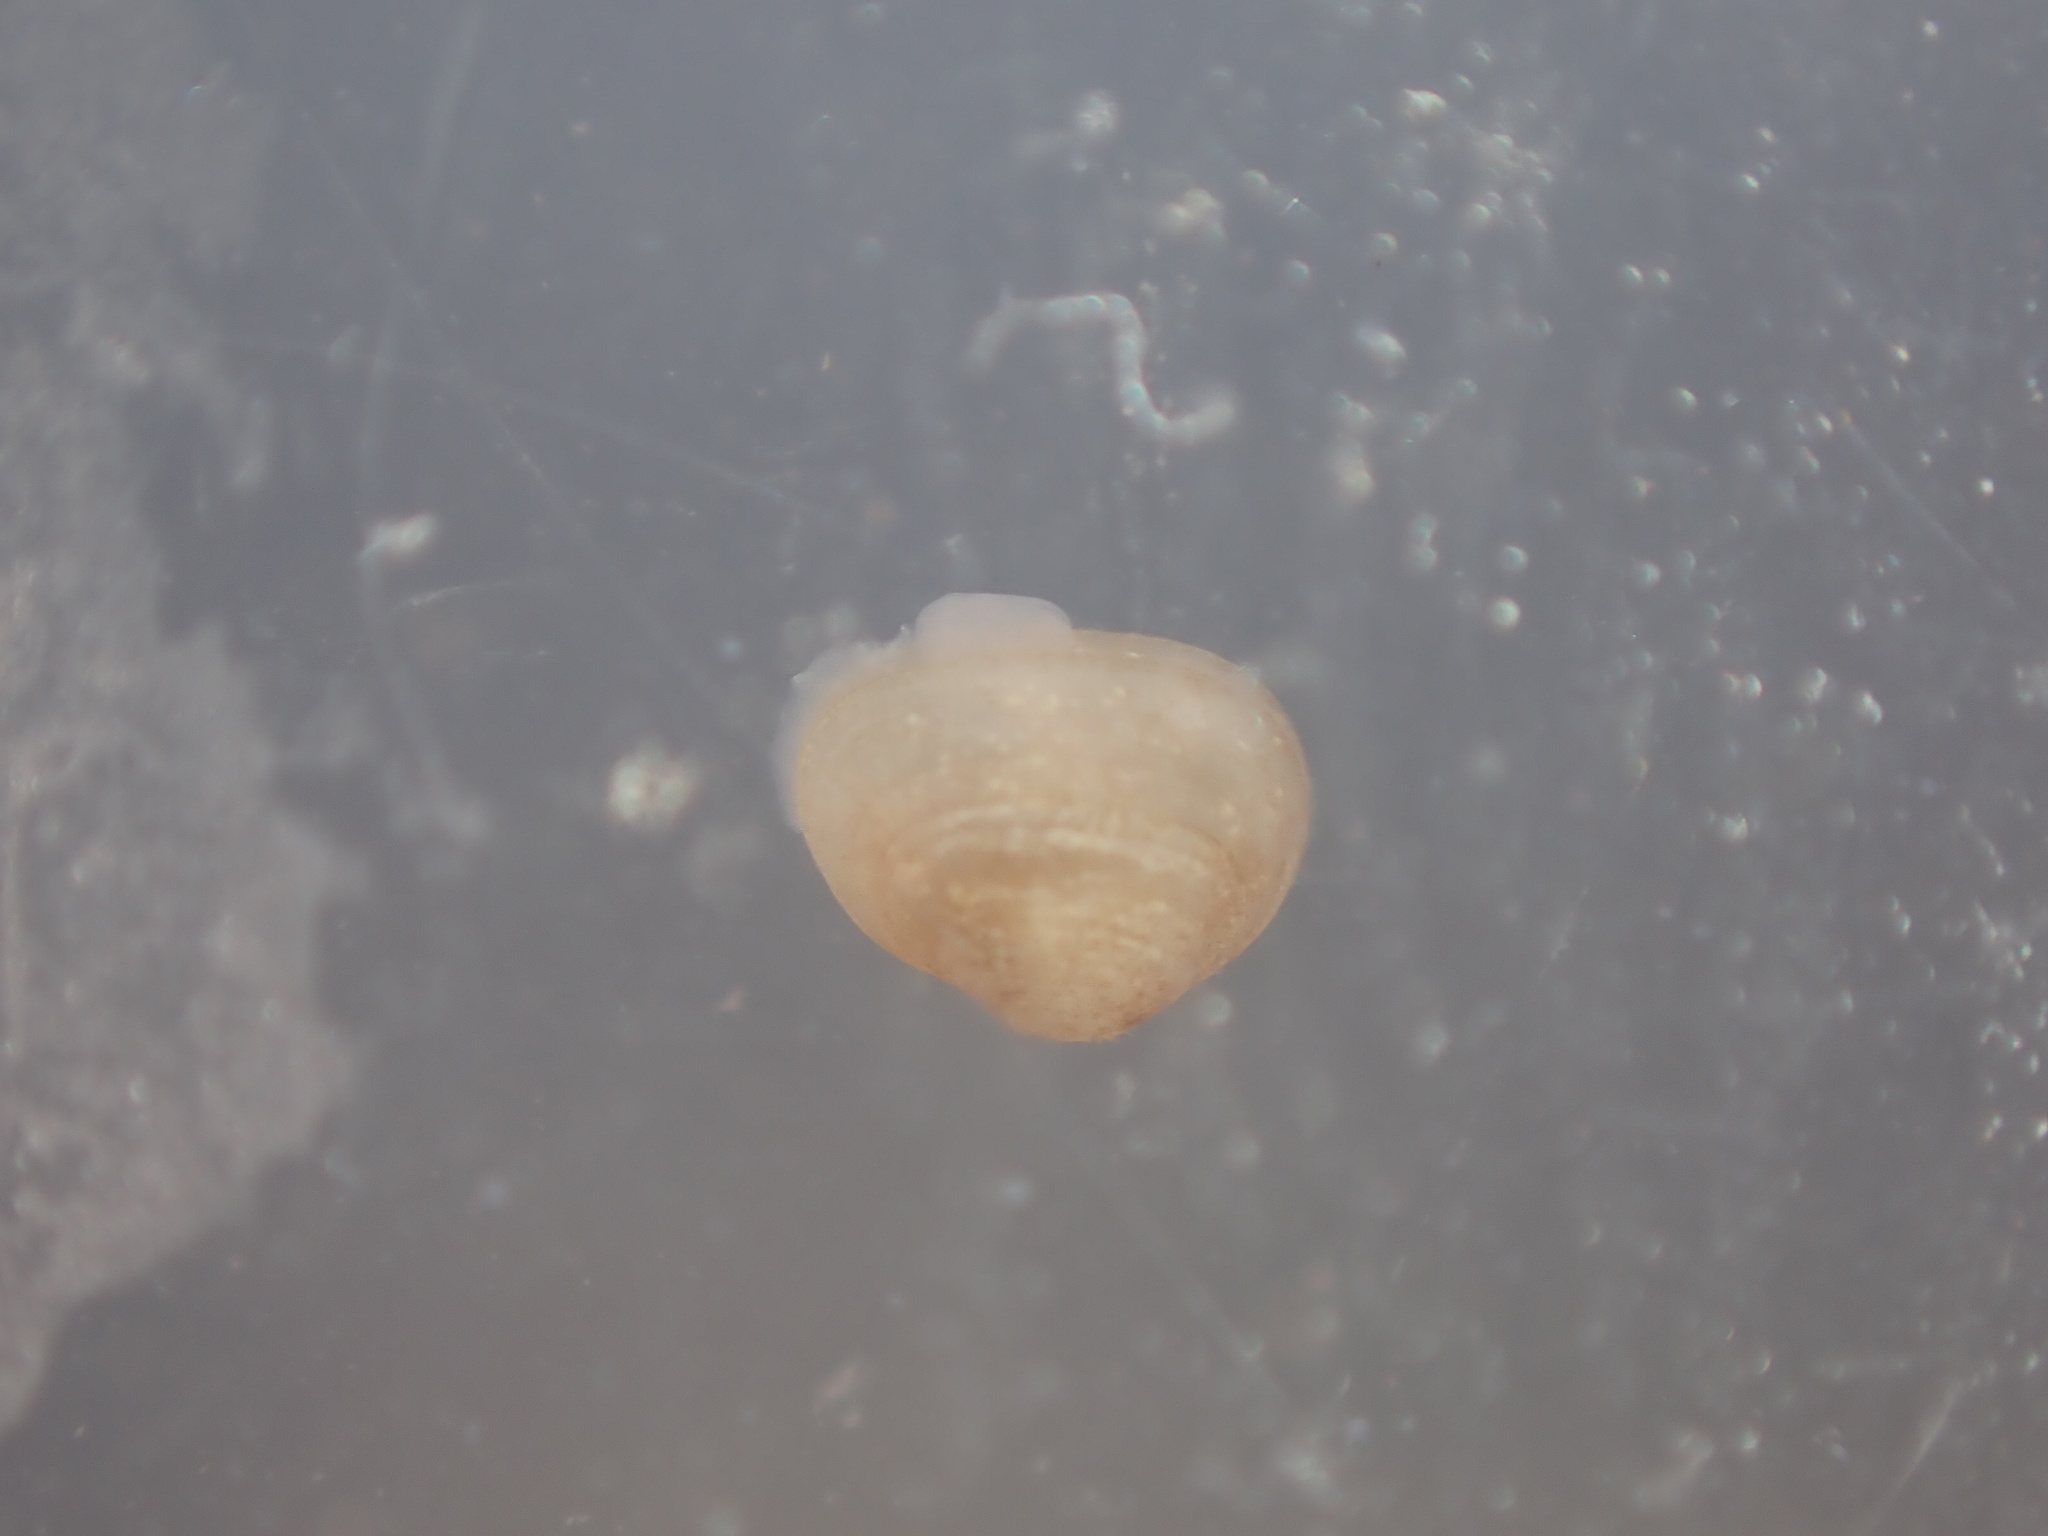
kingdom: Animalia
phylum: Mollusca
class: Bivalvia
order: Galeommatida
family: Lasaeidae
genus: Lasaea
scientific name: Lasaea maoria
